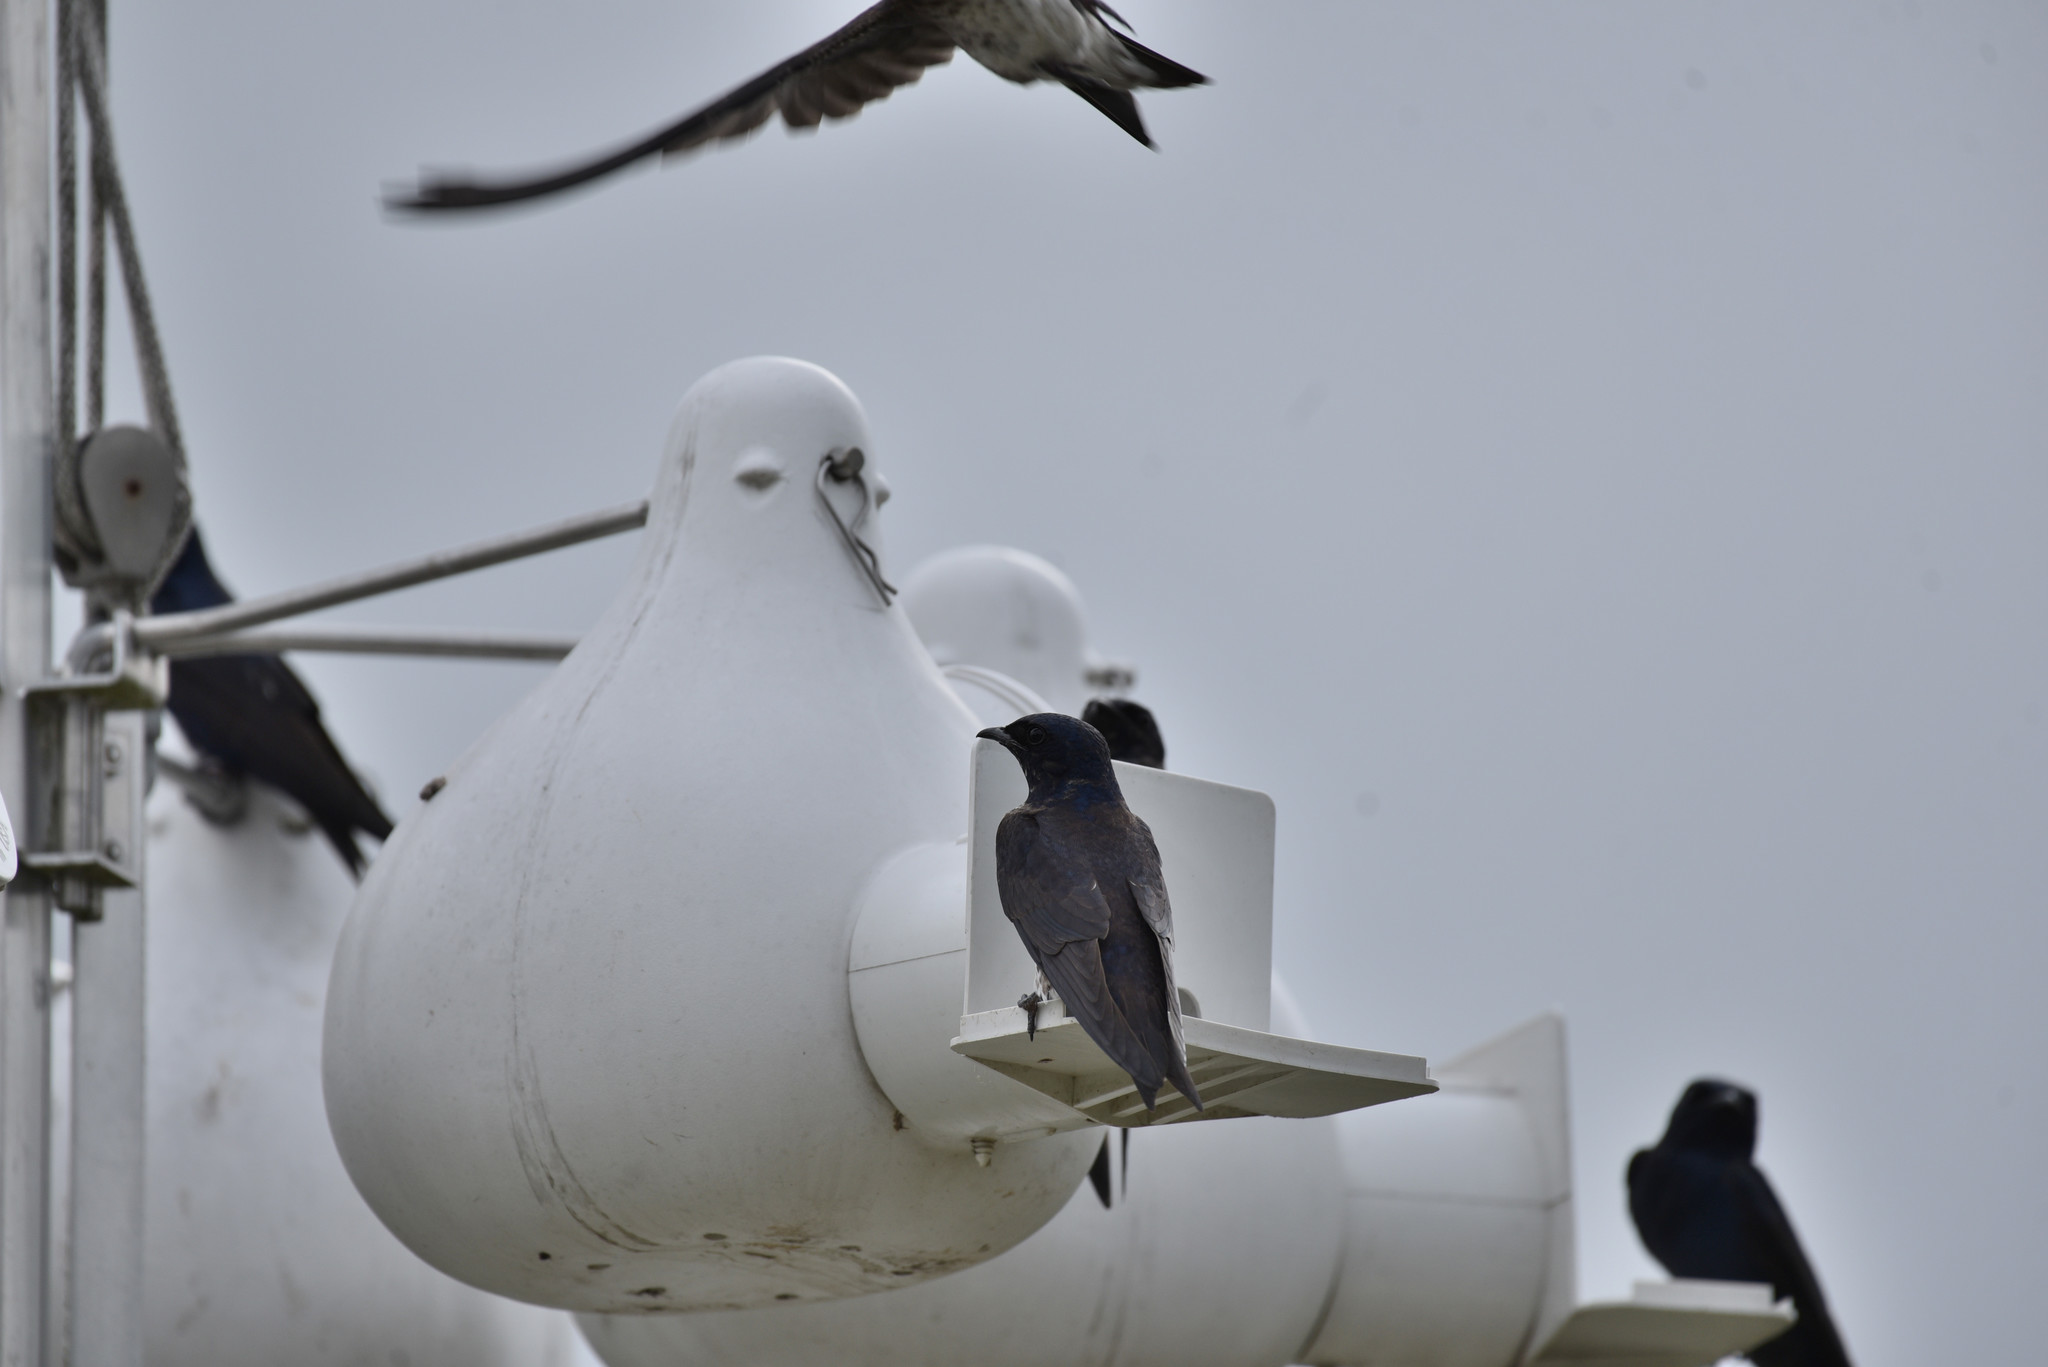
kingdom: Animalia
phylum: Chordata
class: Aves
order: Passeriformes
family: Hirundinidae
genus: Progne
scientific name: Progne subis
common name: Purple martin
